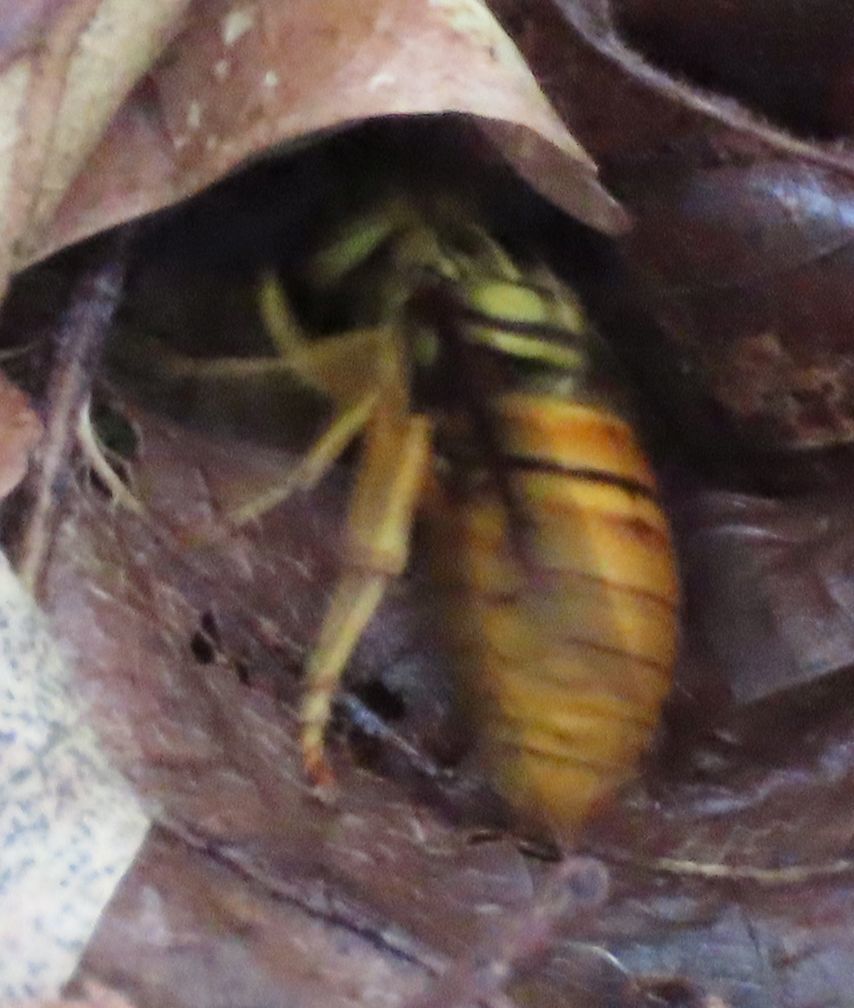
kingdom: Animalia
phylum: Arthropoda
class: Insecta
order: Hymenoptera
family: Vespidae
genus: Vespula
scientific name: Vespula squamosa
